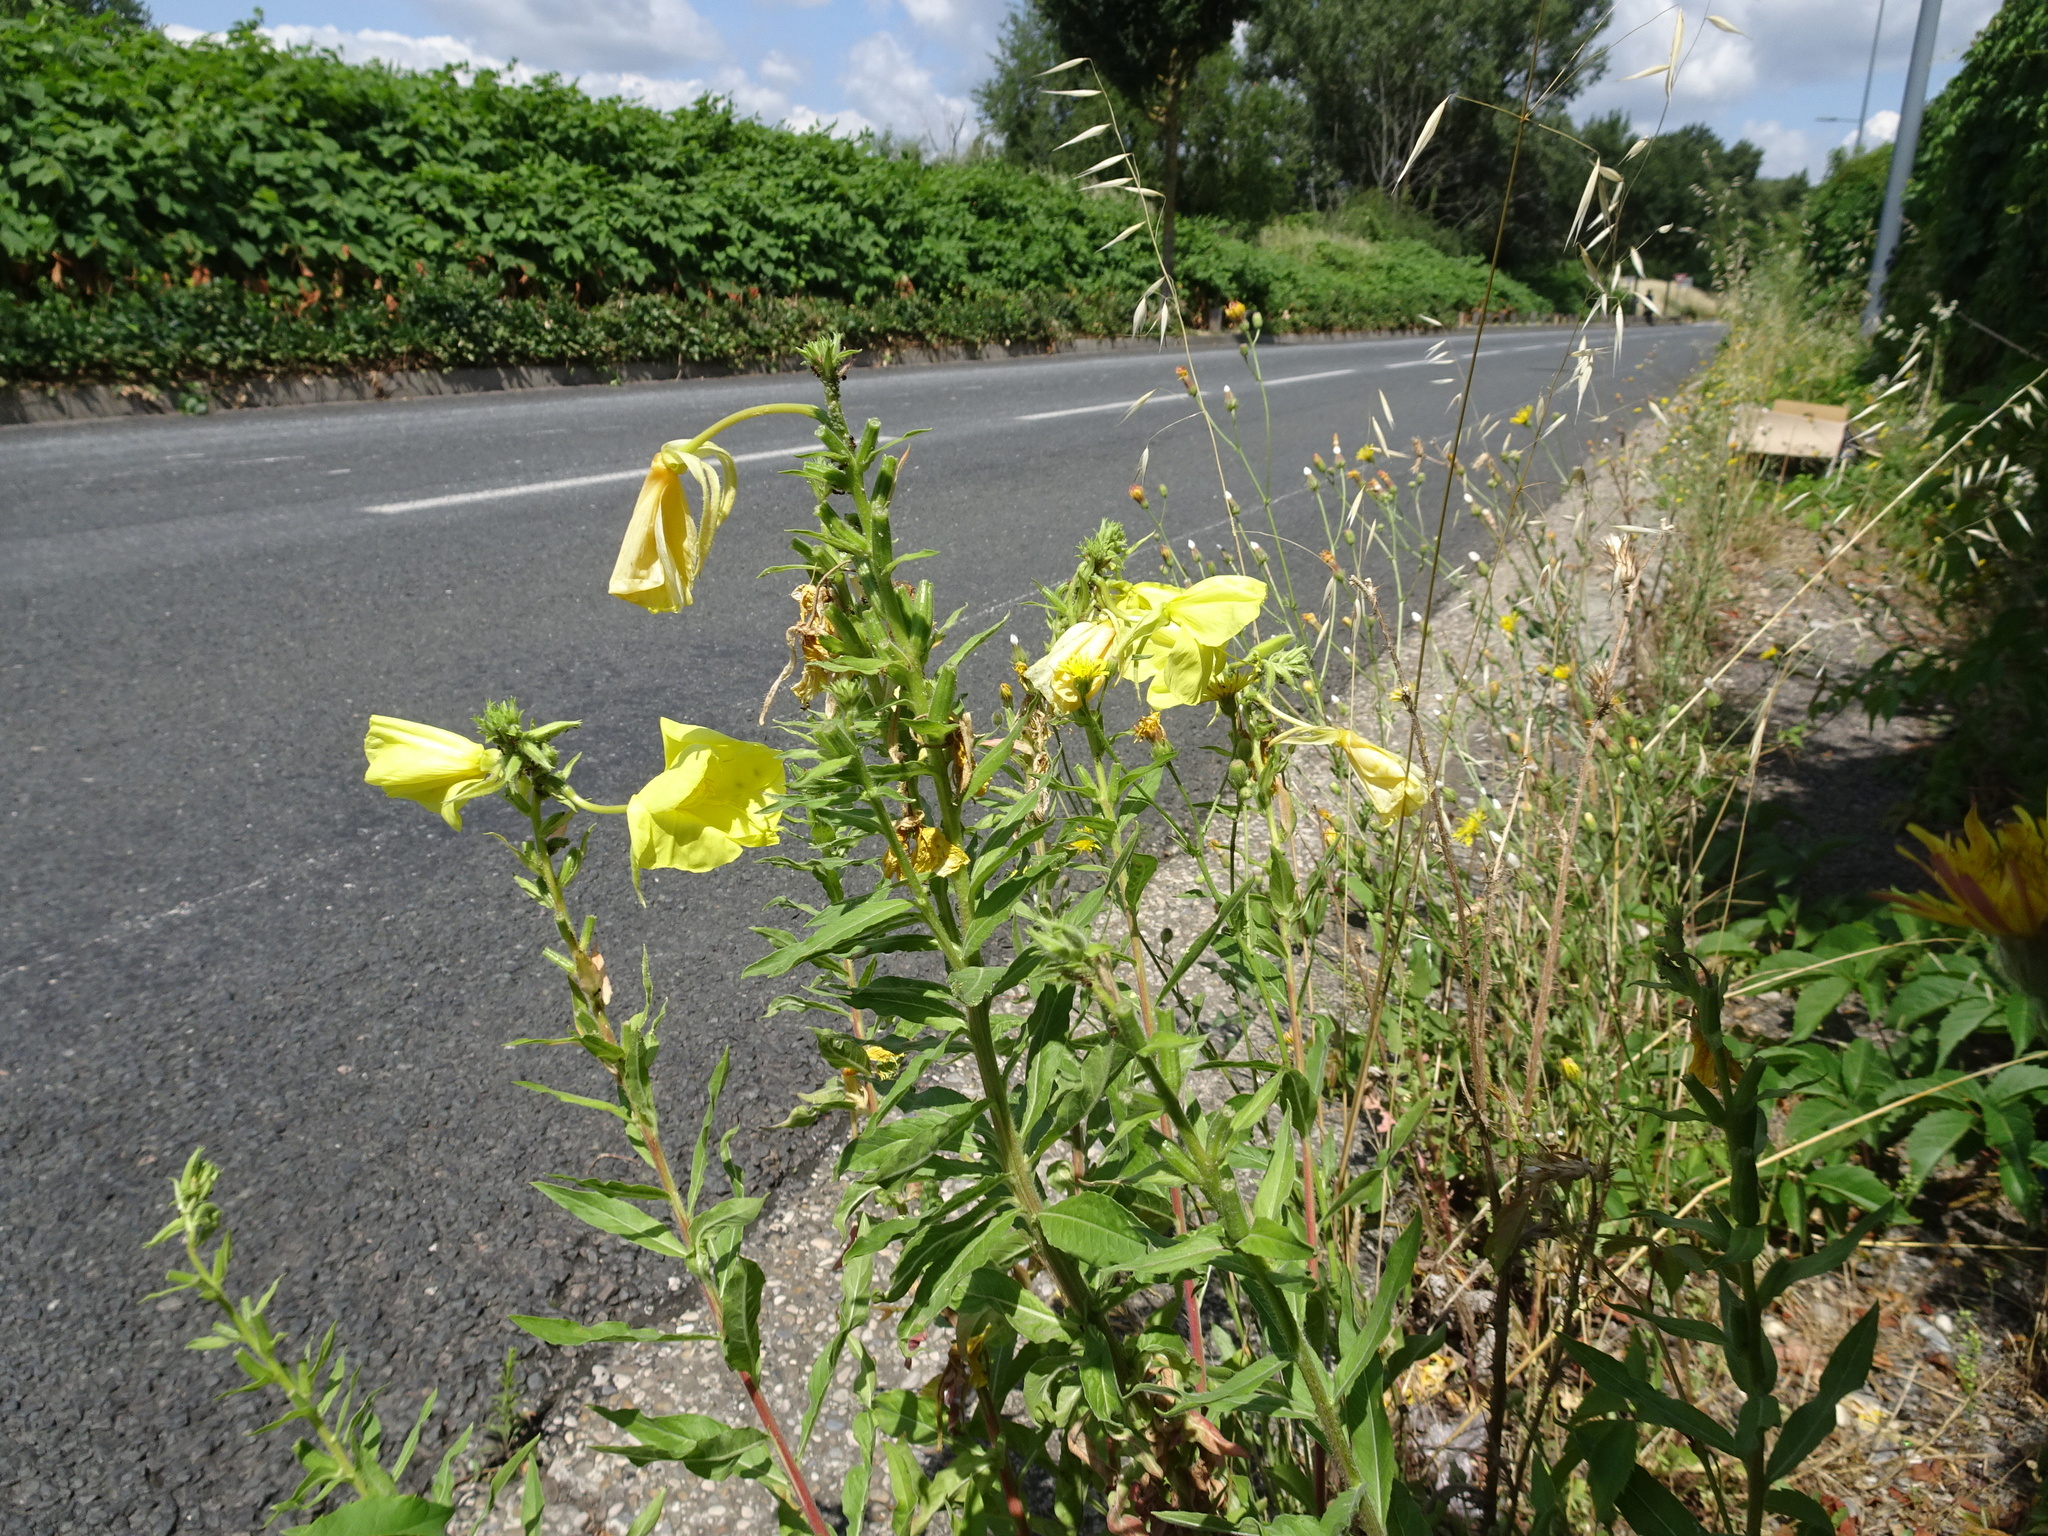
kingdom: Plantae
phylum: Tracheophyta
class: Magnoliopsida
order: Myrtales
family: Onagraceae
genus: Oenothera
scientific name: Oenothera glazioviana
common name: Large-flowered evening-primrose
